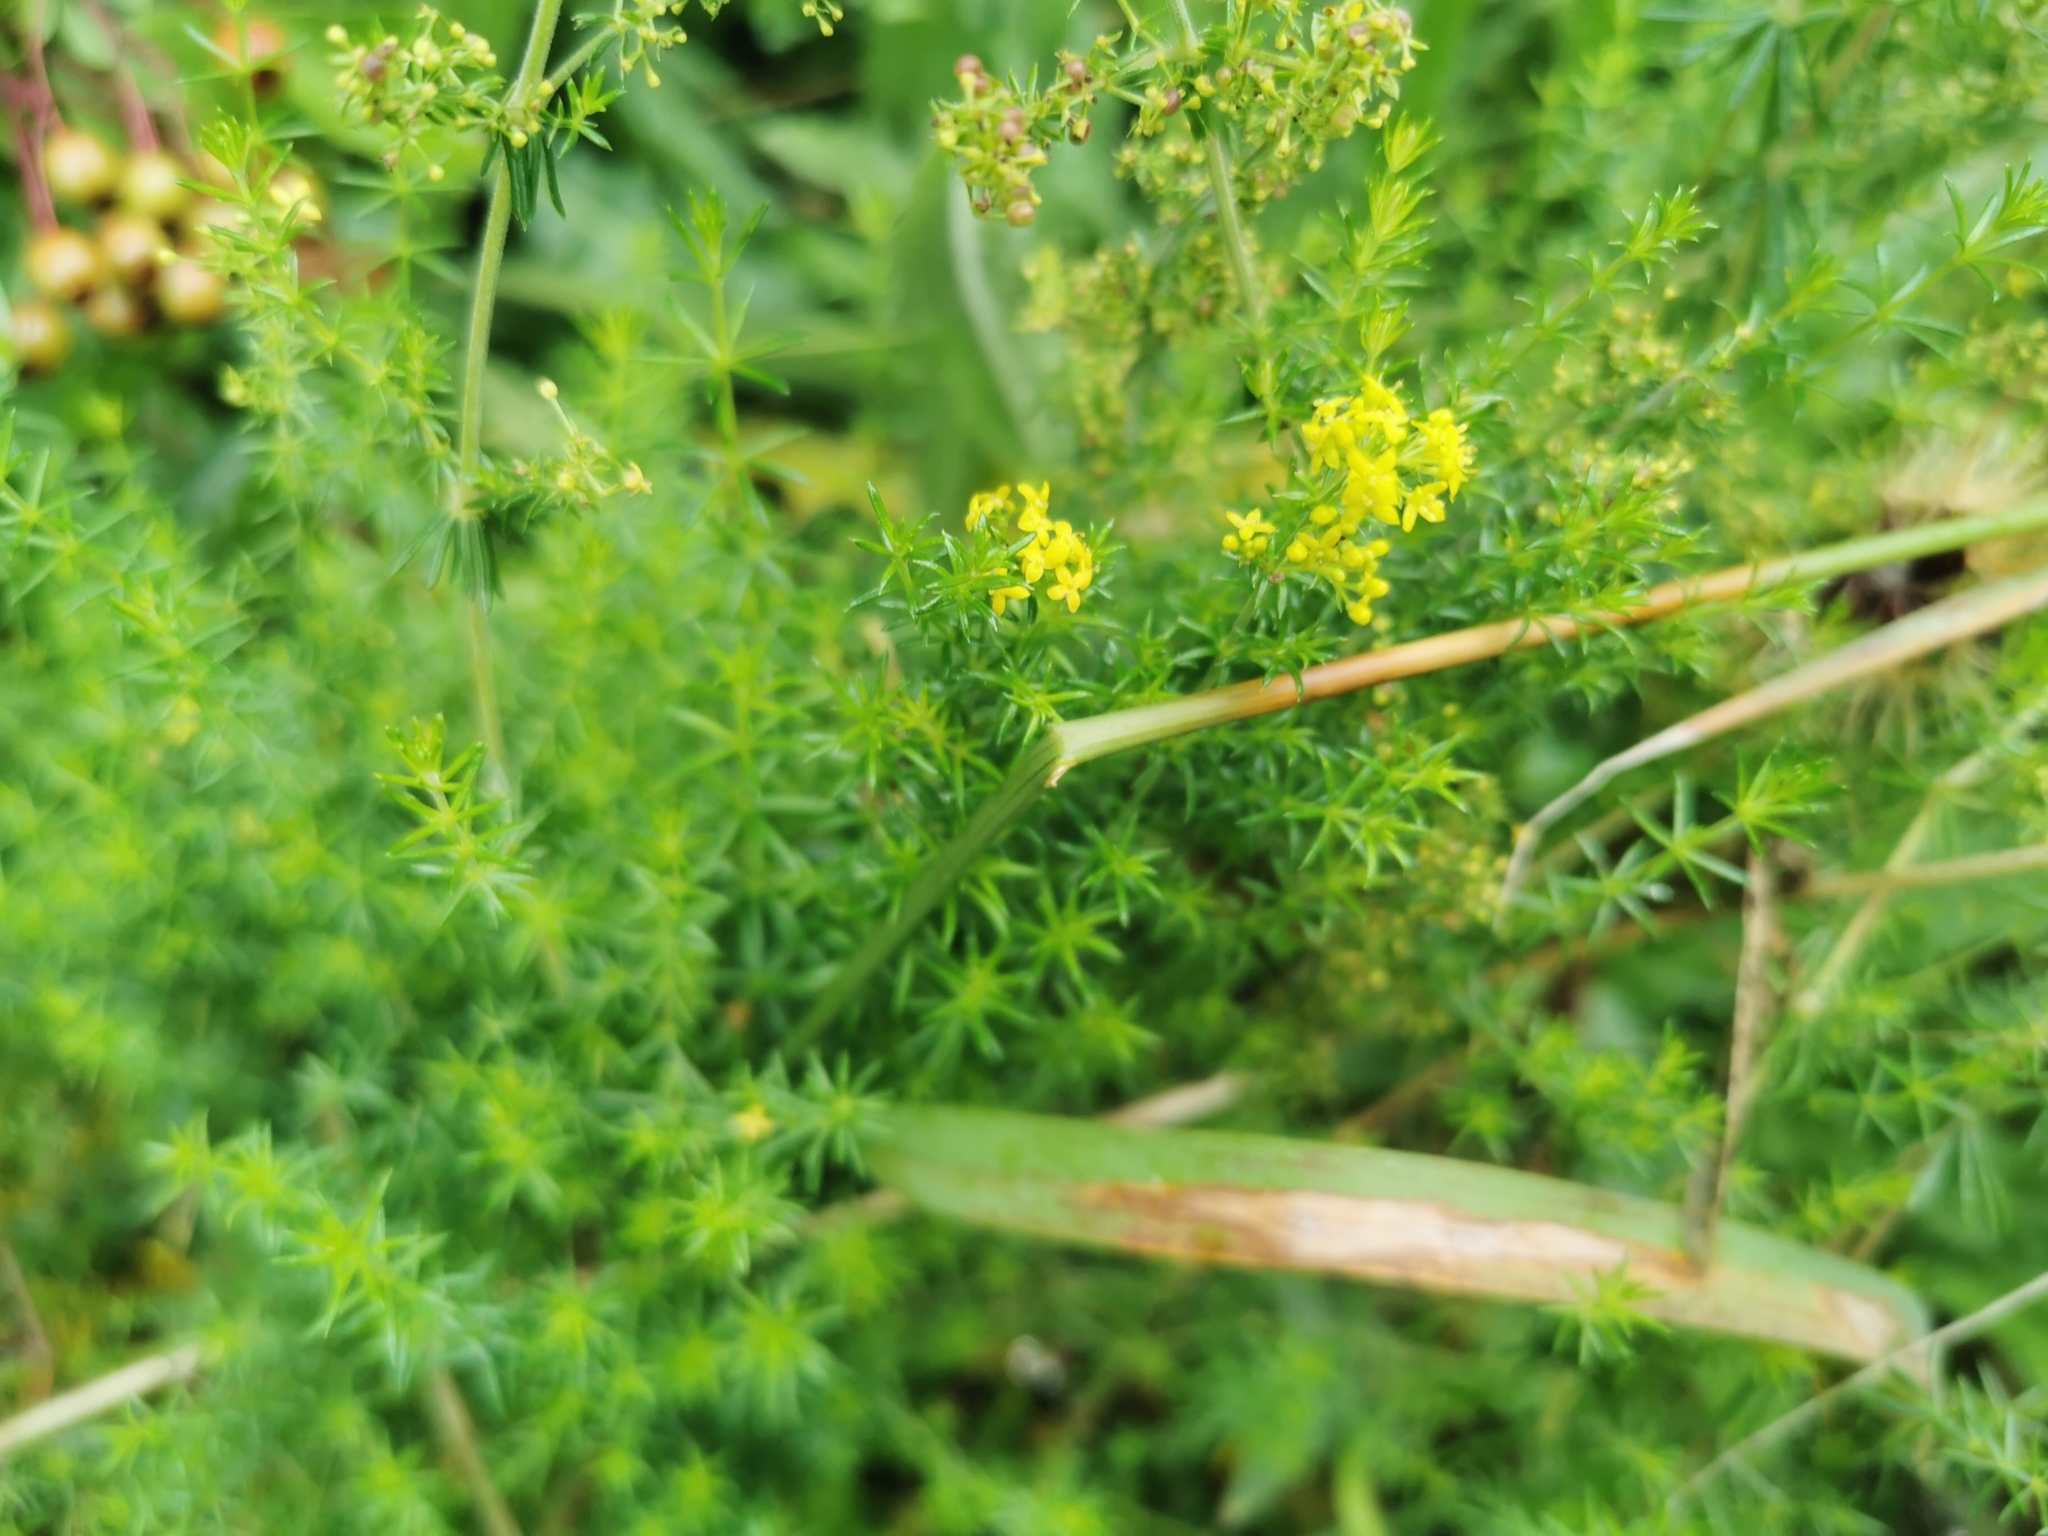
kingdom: Plantae
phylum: Tracheophyta
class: Magnoliopsida
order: Gentianales
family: Rubiaceae
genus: Galium
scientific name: Galium verum
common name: Lady's bedstraw
